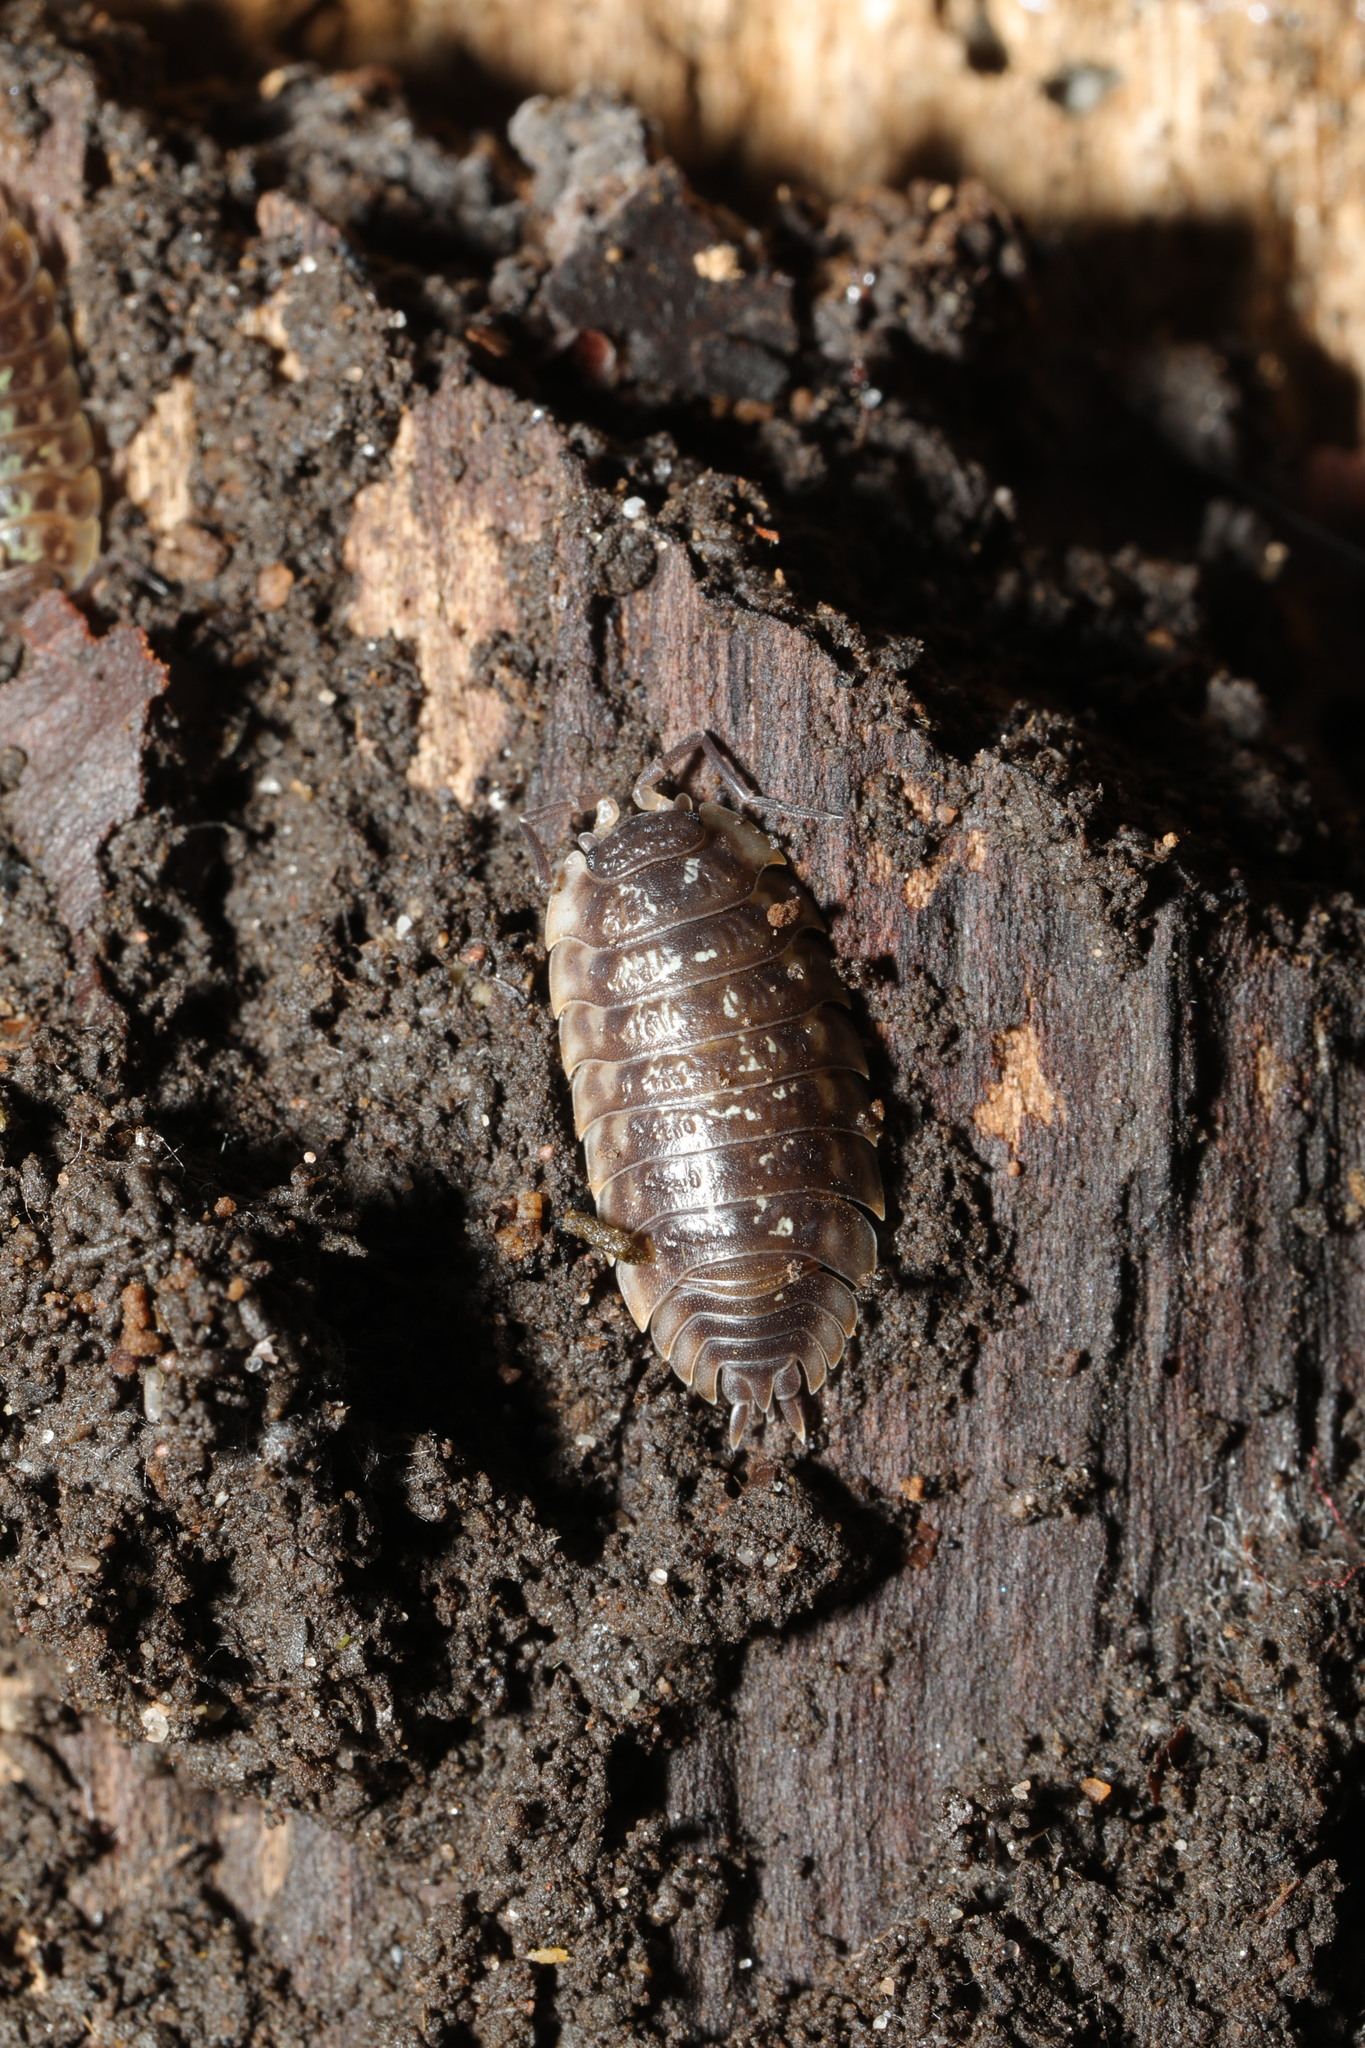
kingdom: Animalia
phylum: Arthropoda
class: Malacostraca
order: Isopoda
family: Oniscidae
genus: Oniscus
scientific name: Oniscus asellus
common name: Common shiny woodlouse
